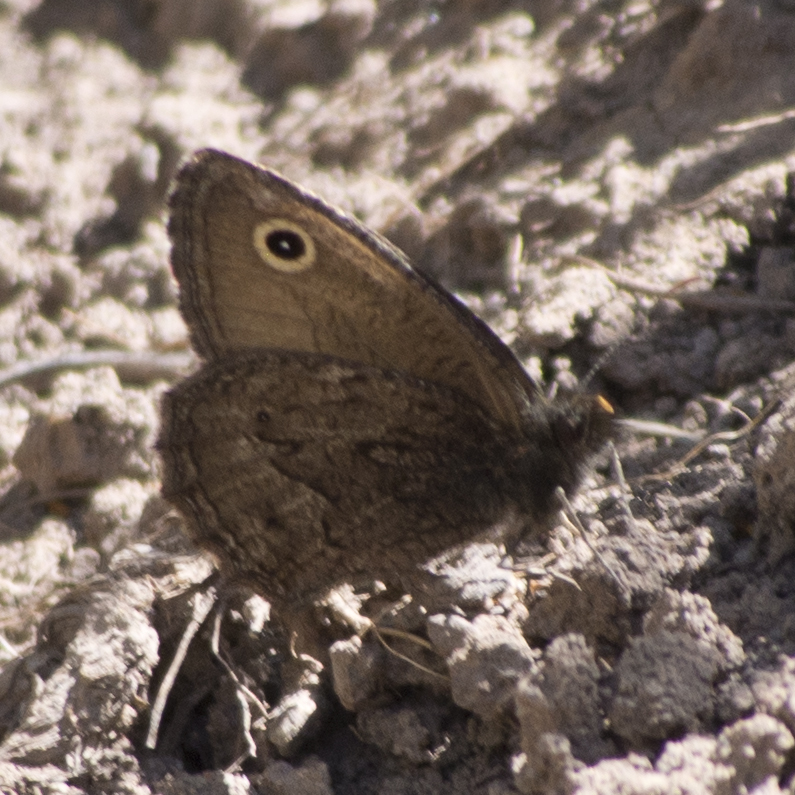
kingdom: Animalia
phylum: Arthropoda
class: Insecta
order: Lepidoptera
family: Nymphalidae
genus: Cercyonis
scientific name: Cercyonis oetus
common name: Small wood-nymph
